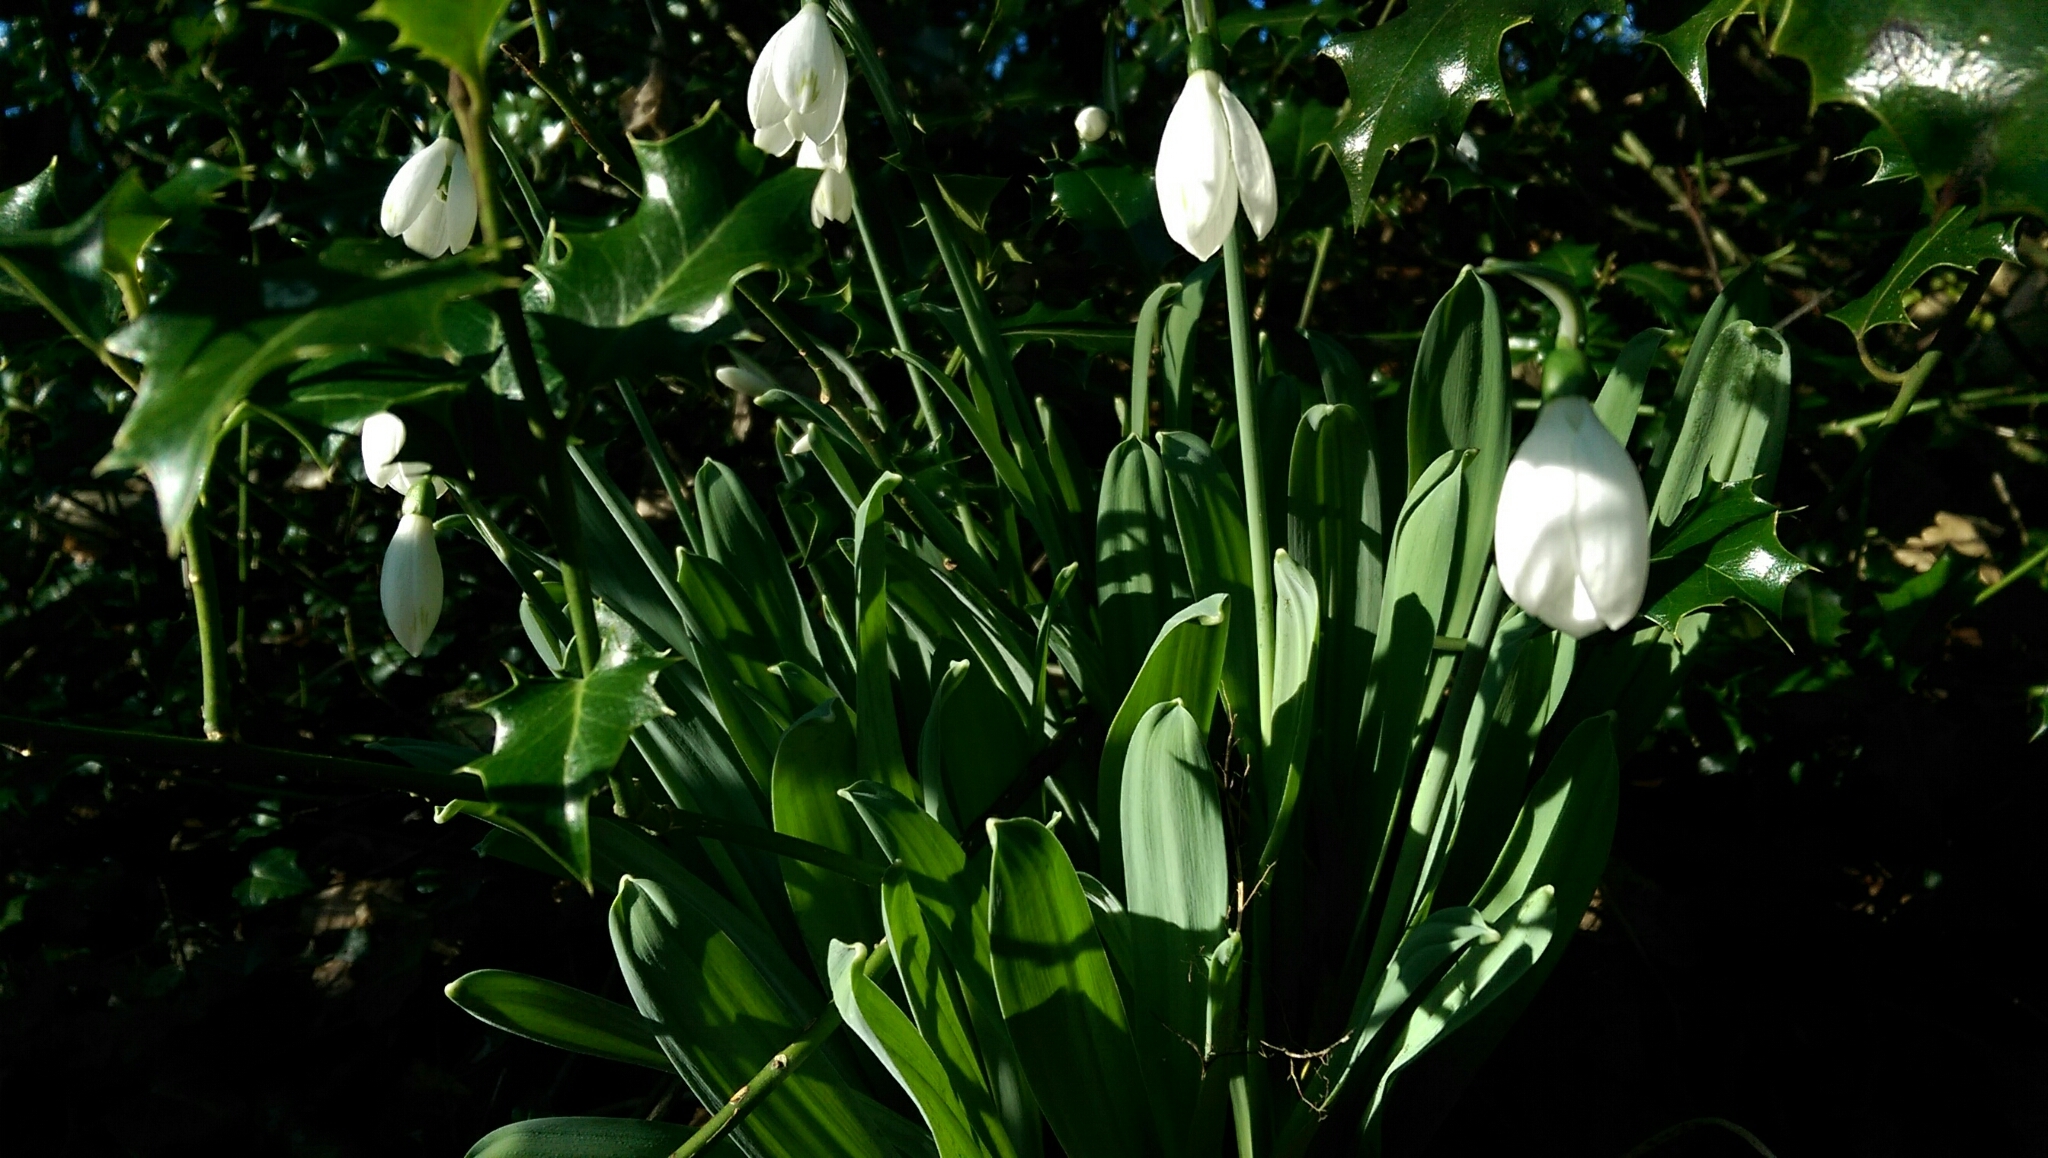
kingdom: Plantae
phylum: Tracheophyta
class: Liliopsida
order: Asparagales
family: Amaryllidaceae
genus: Galanthus
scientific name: Galanthus elwesii
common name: Greater snowdrop
